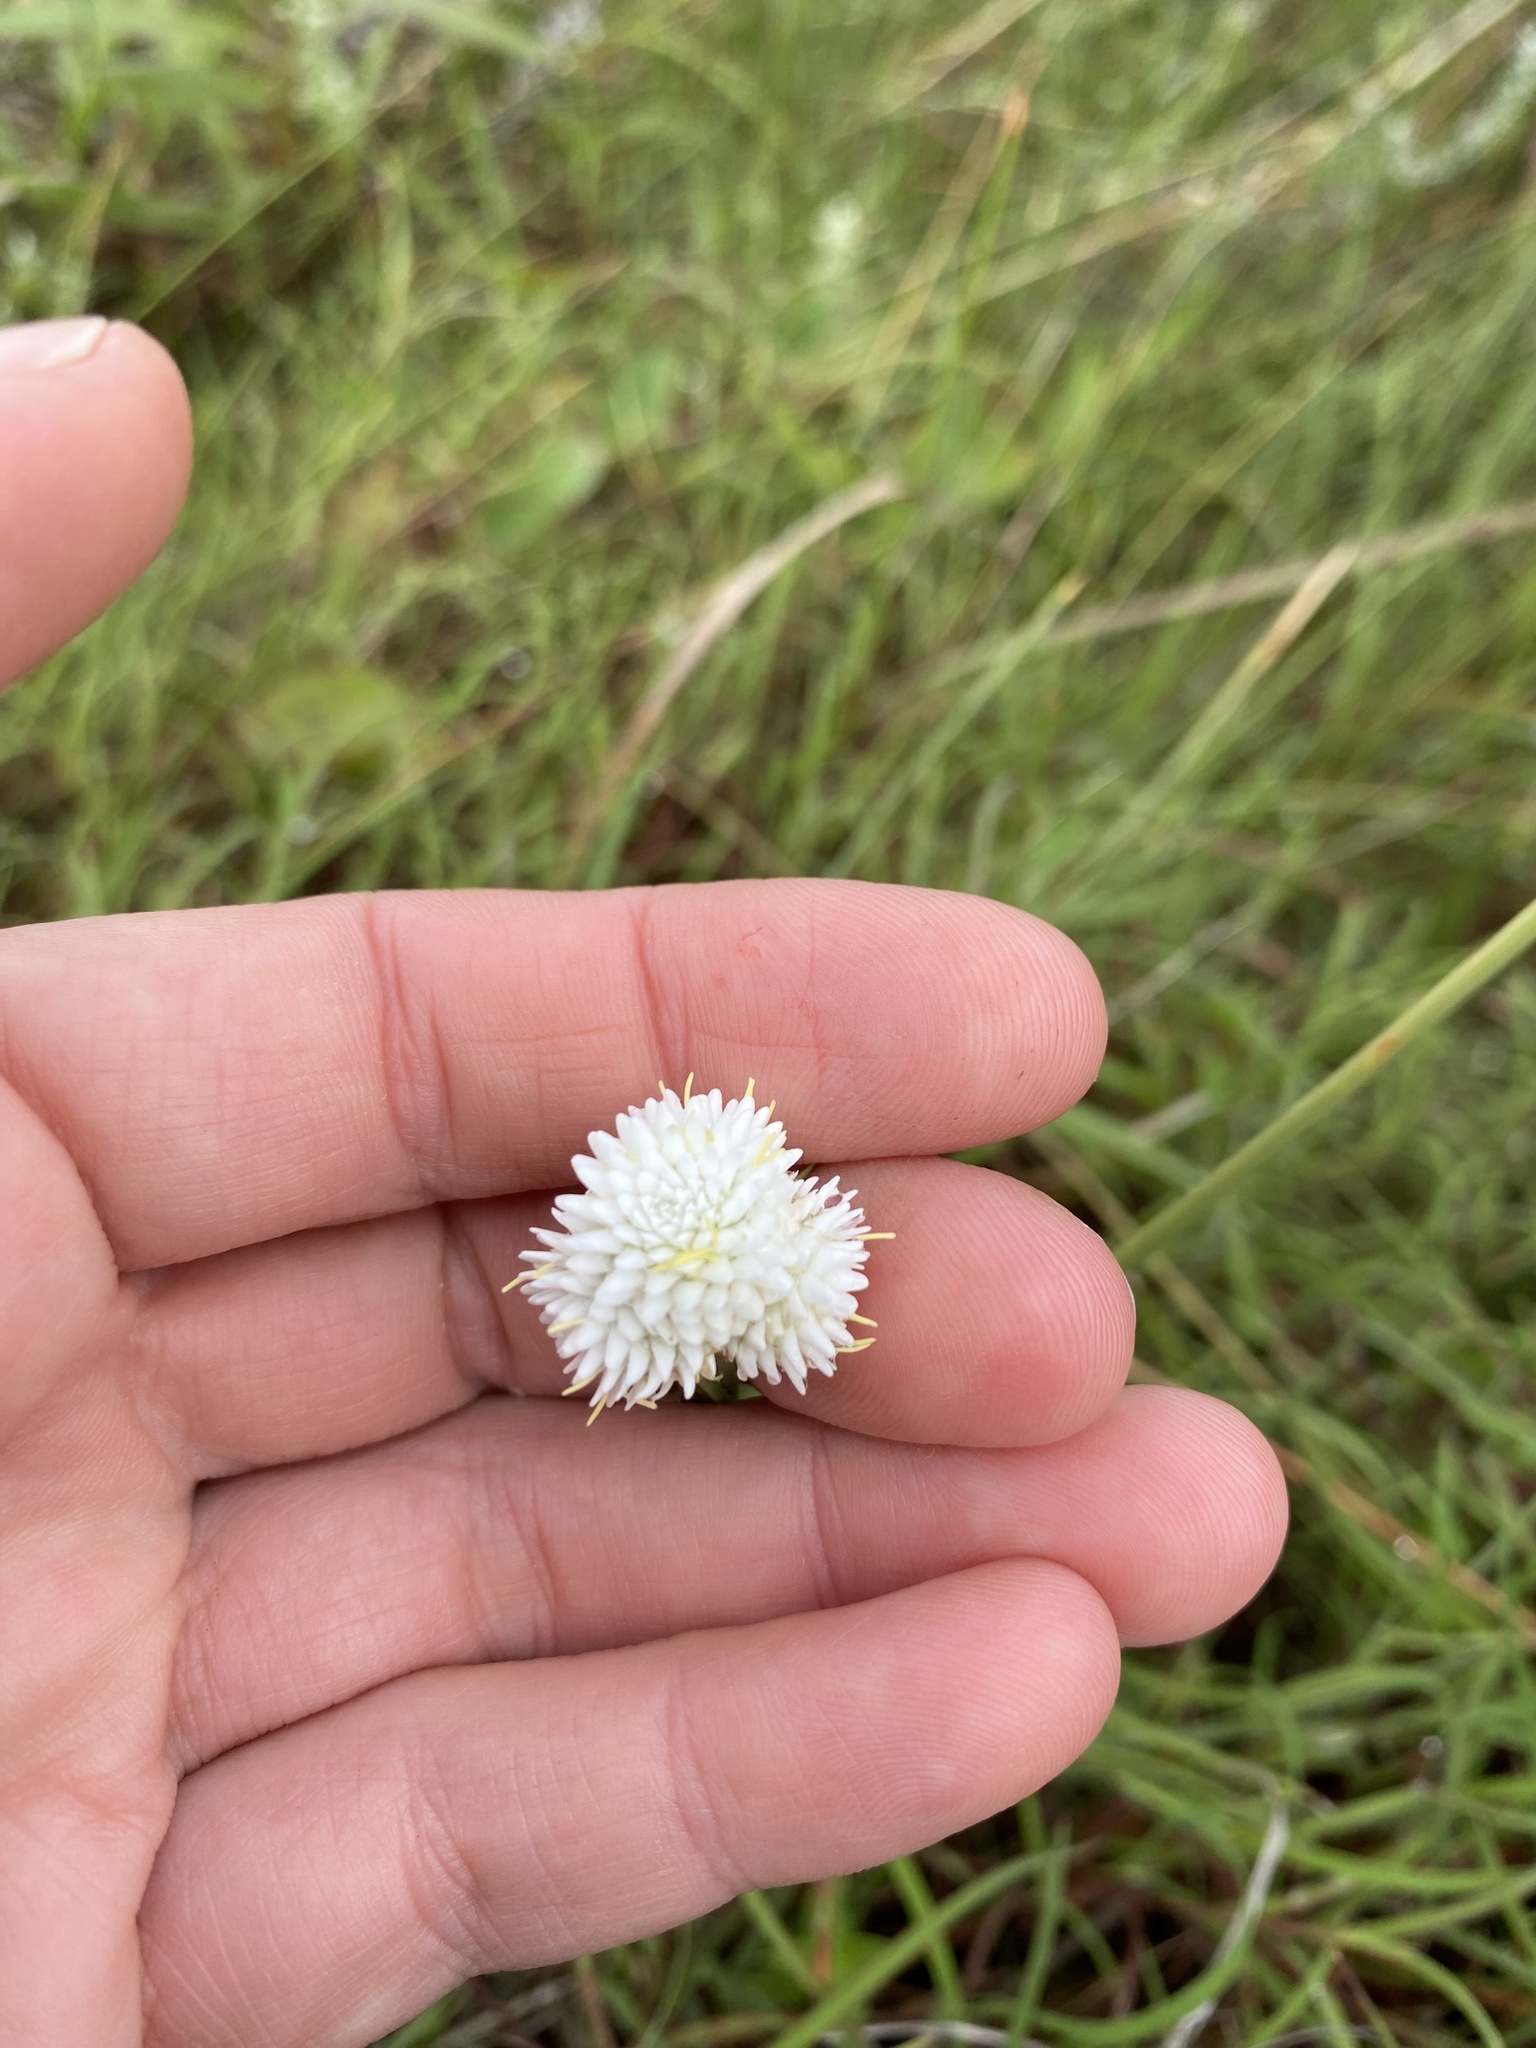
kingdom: Plantae
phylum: Tracheophyta
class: Liliopsida
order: Poales
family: Cyperaceae
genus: Cyperus
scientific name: Cyperus ascocapensis
